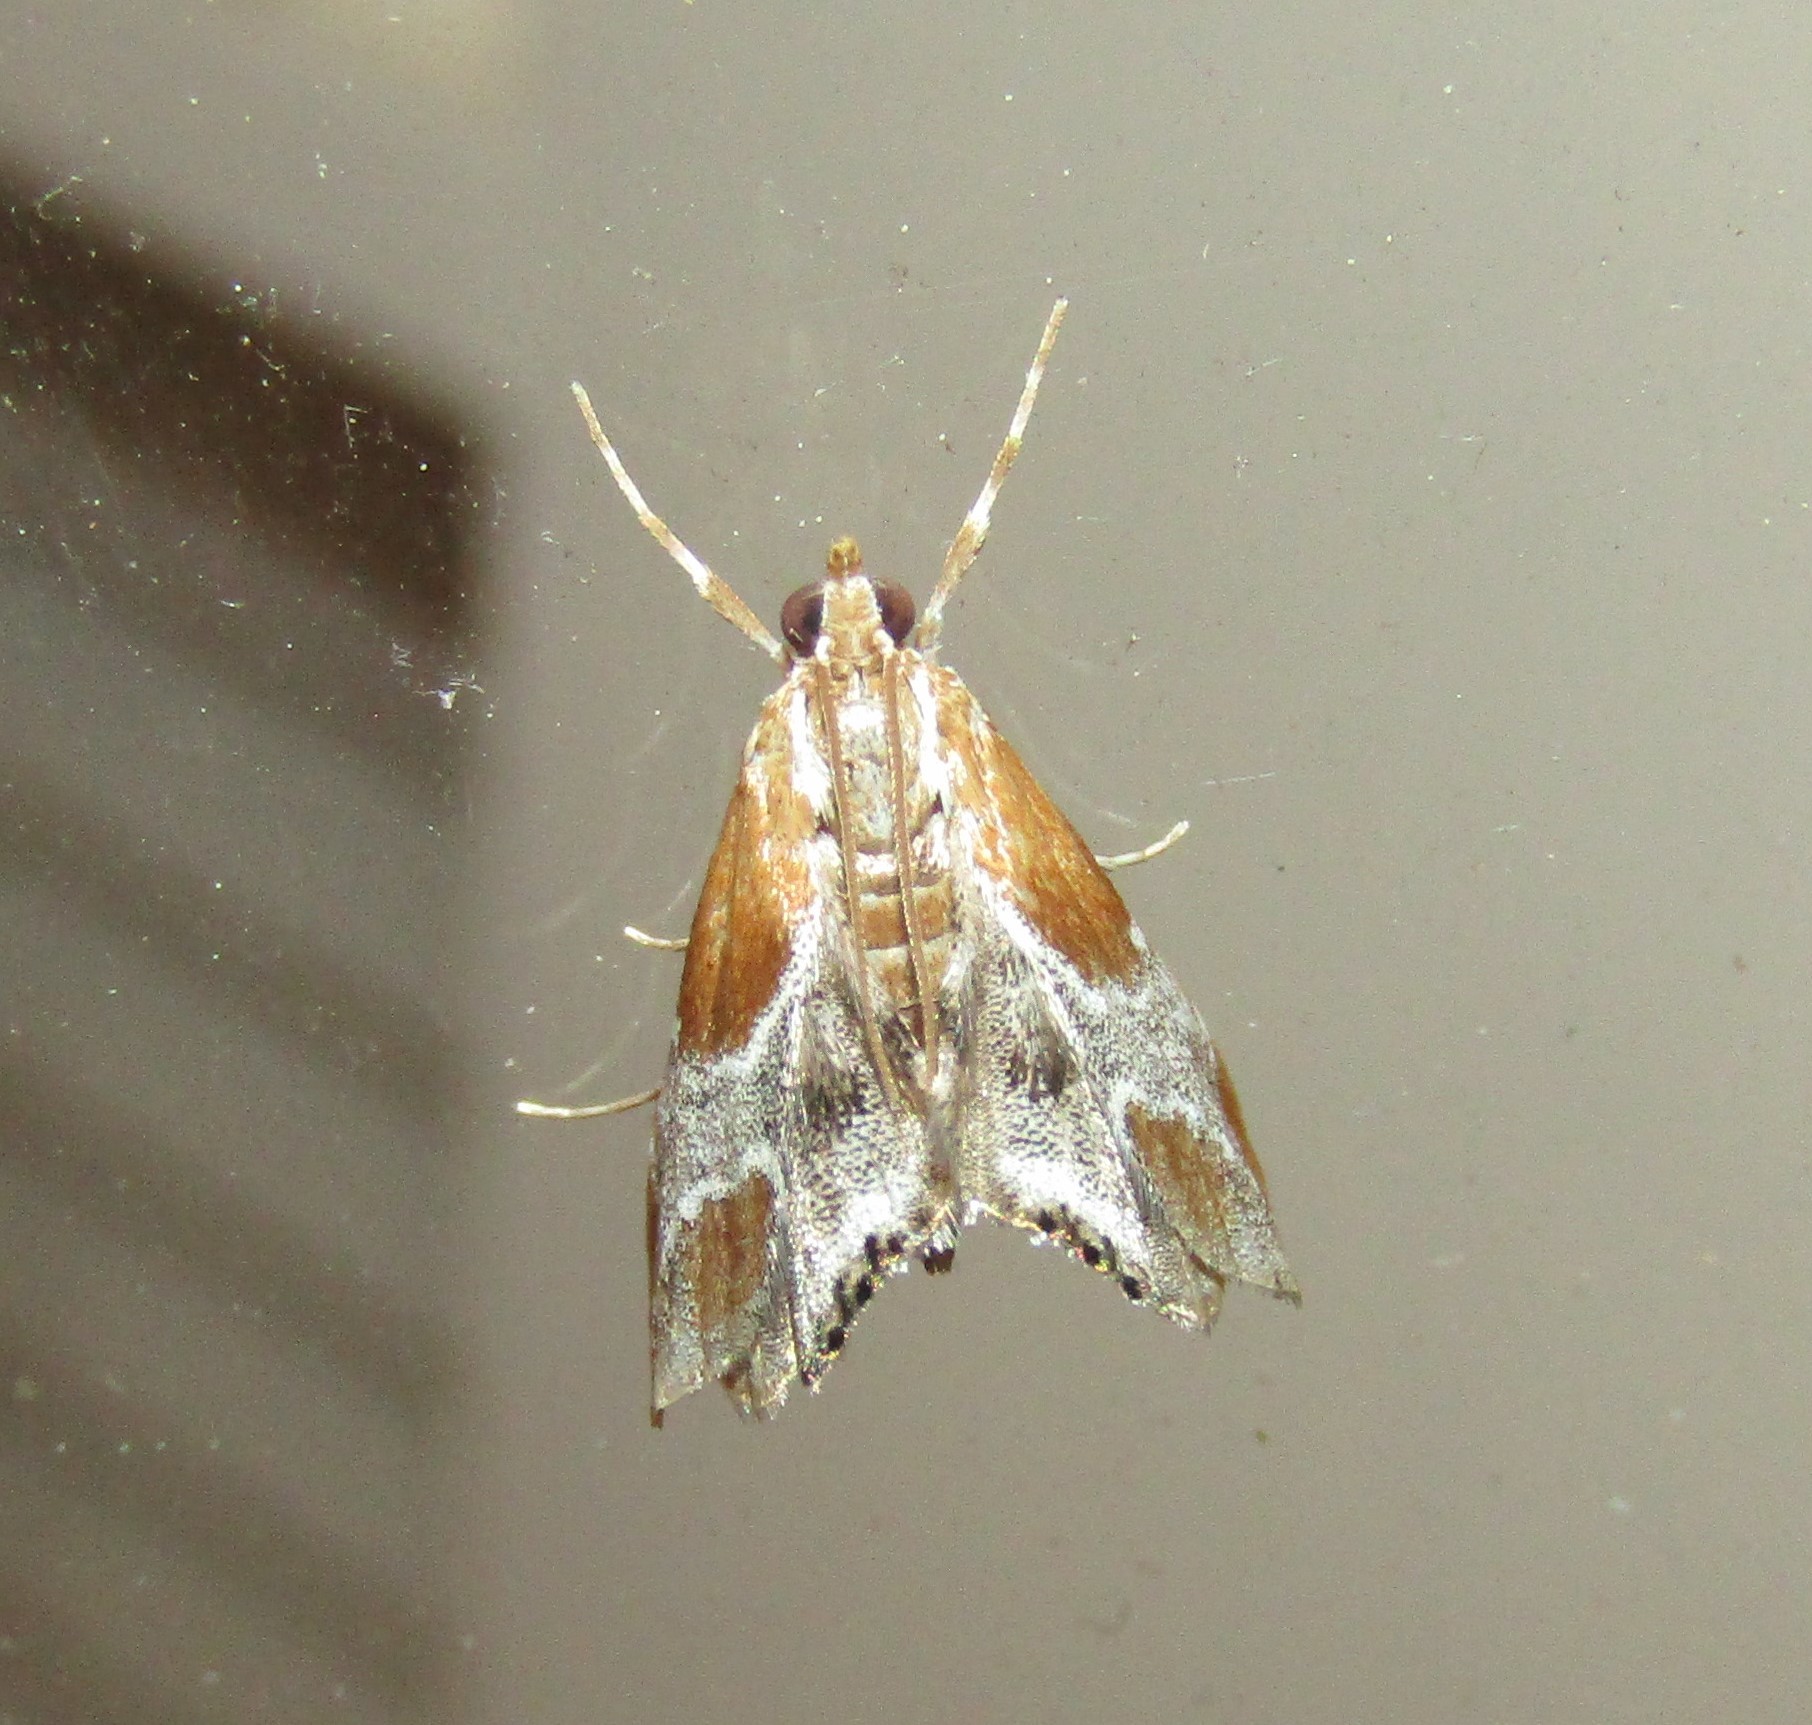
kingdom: Animalia
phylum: Arthropoda
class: Insecta
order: Lepidoptera
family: Crambidae
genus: Chalcoela
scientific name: Chalcoela pegasalis
